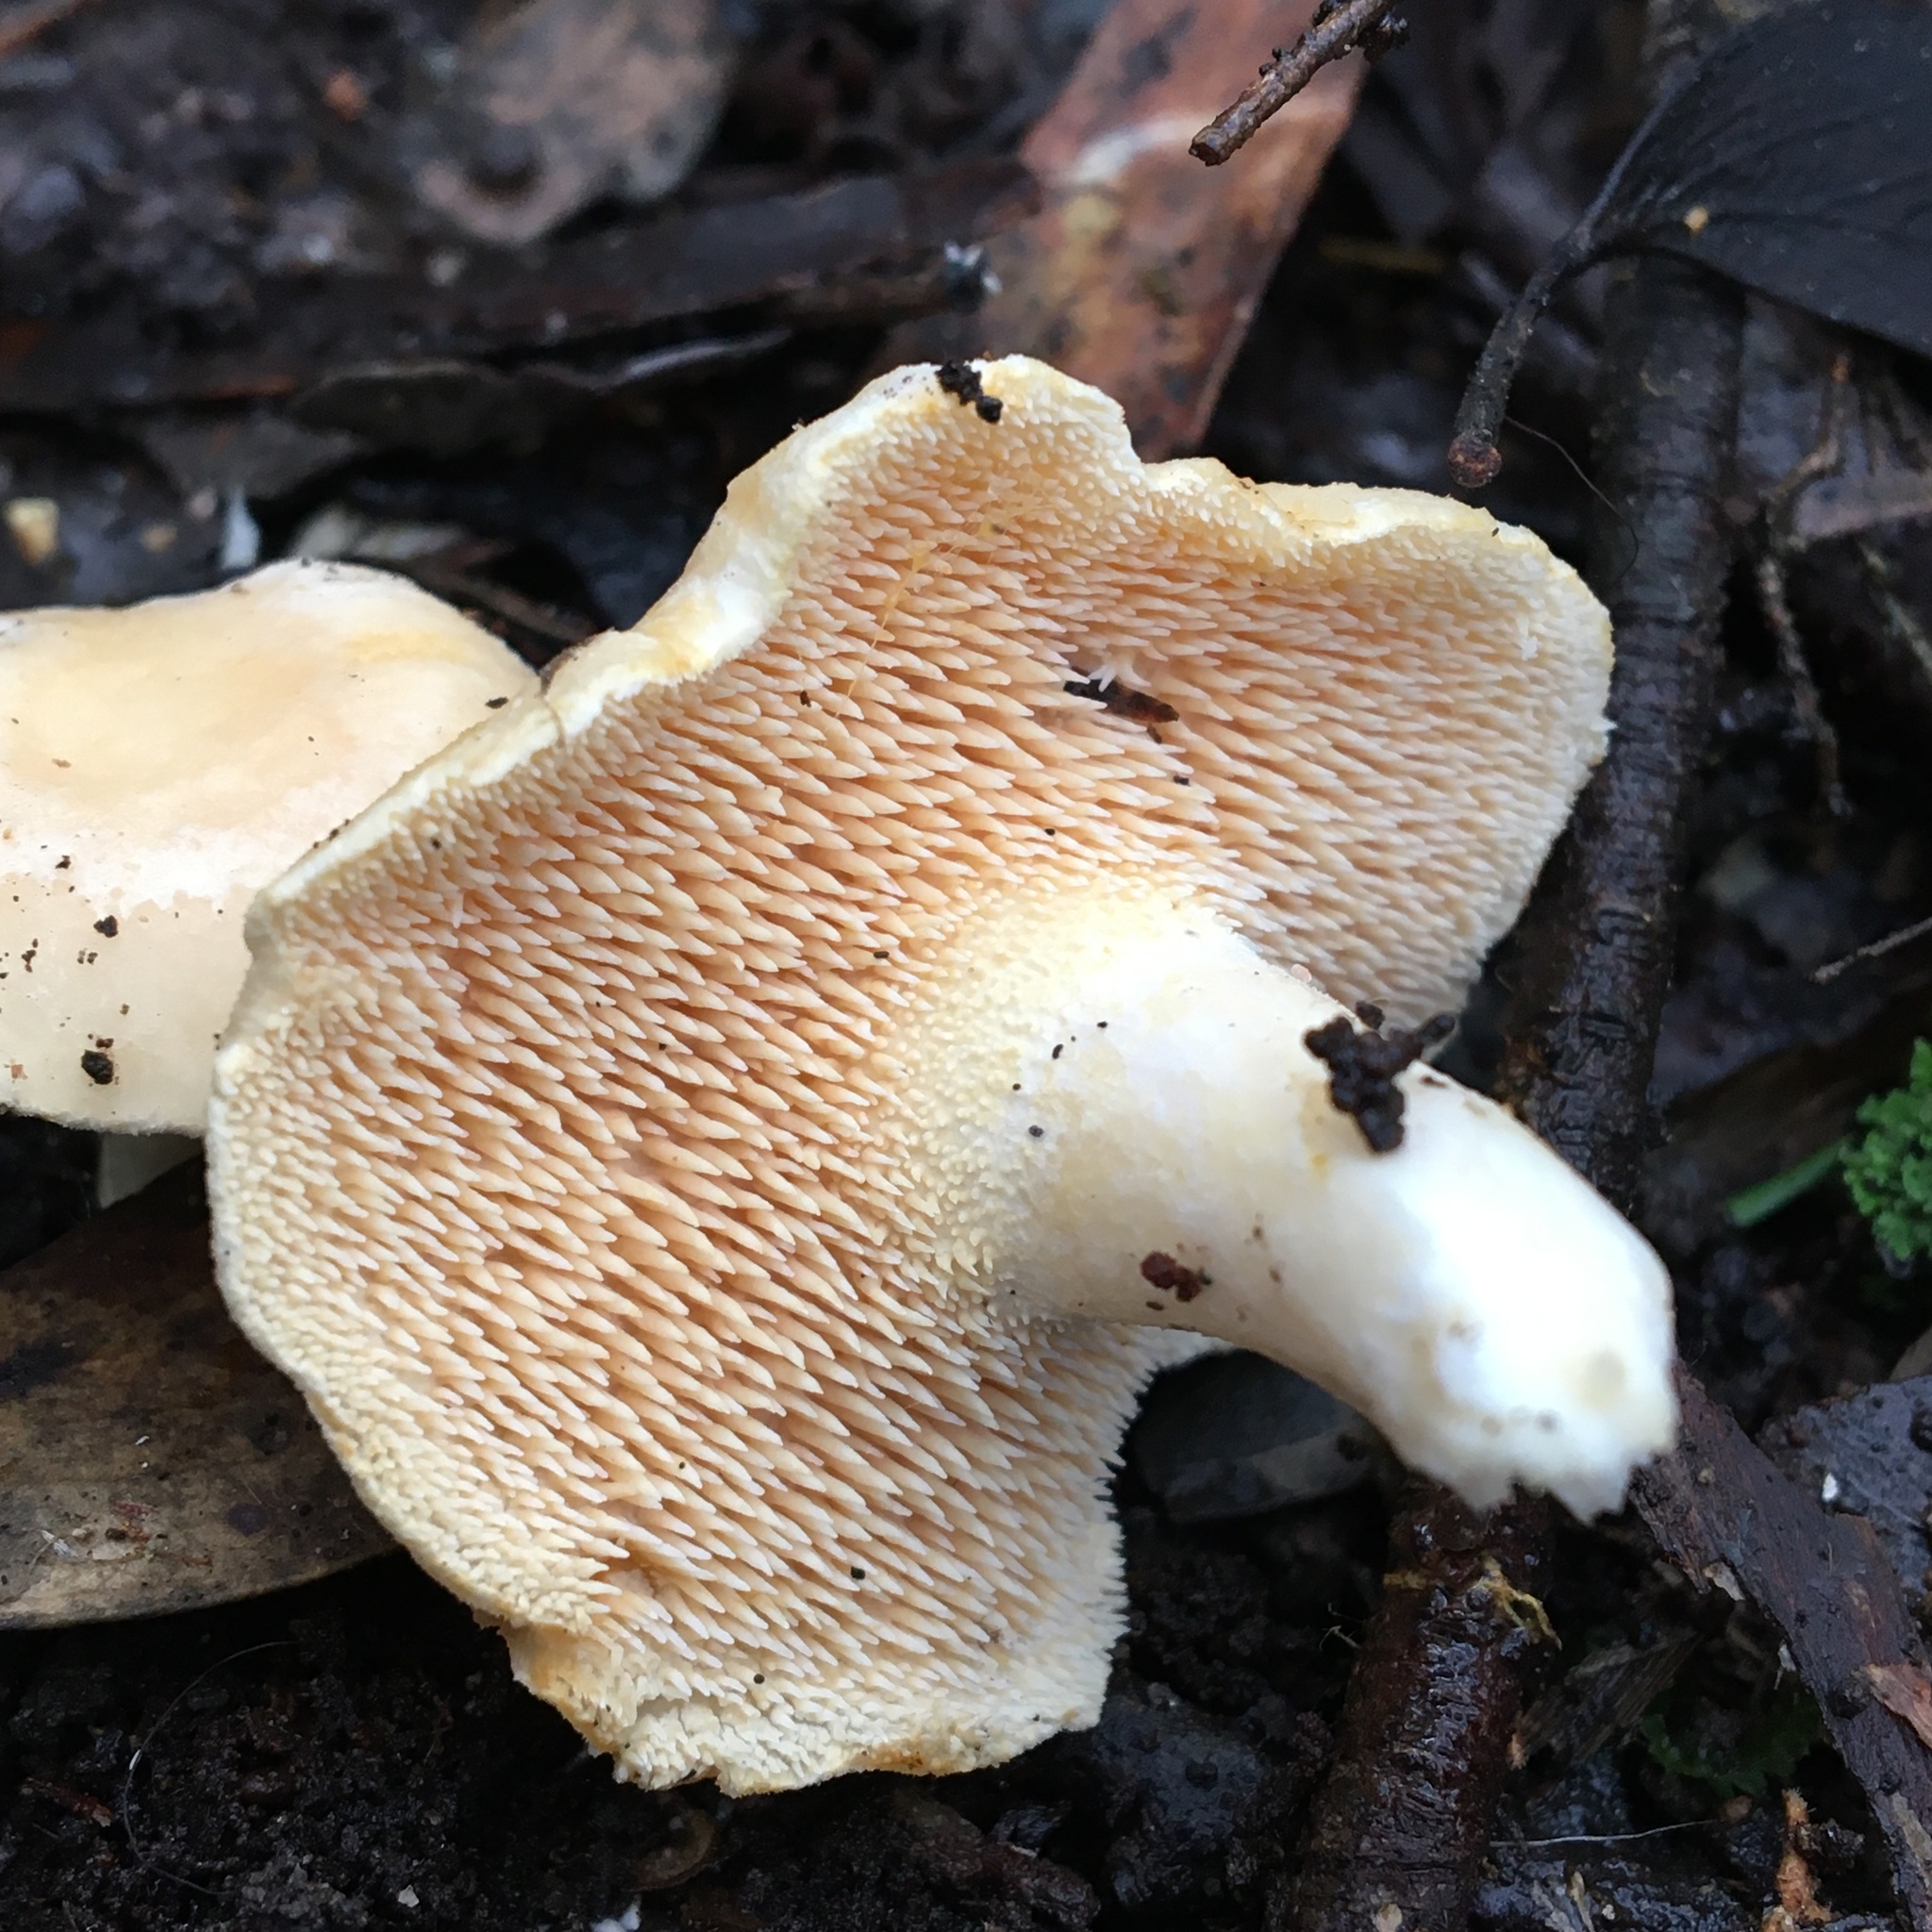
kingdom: Fungi
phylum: Basidiomycota
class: Agaricomycetes
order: Cantharellales
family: Hydnaceae
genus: Hydnum
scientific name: Hydnum repandum
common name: Wood hedgehog
